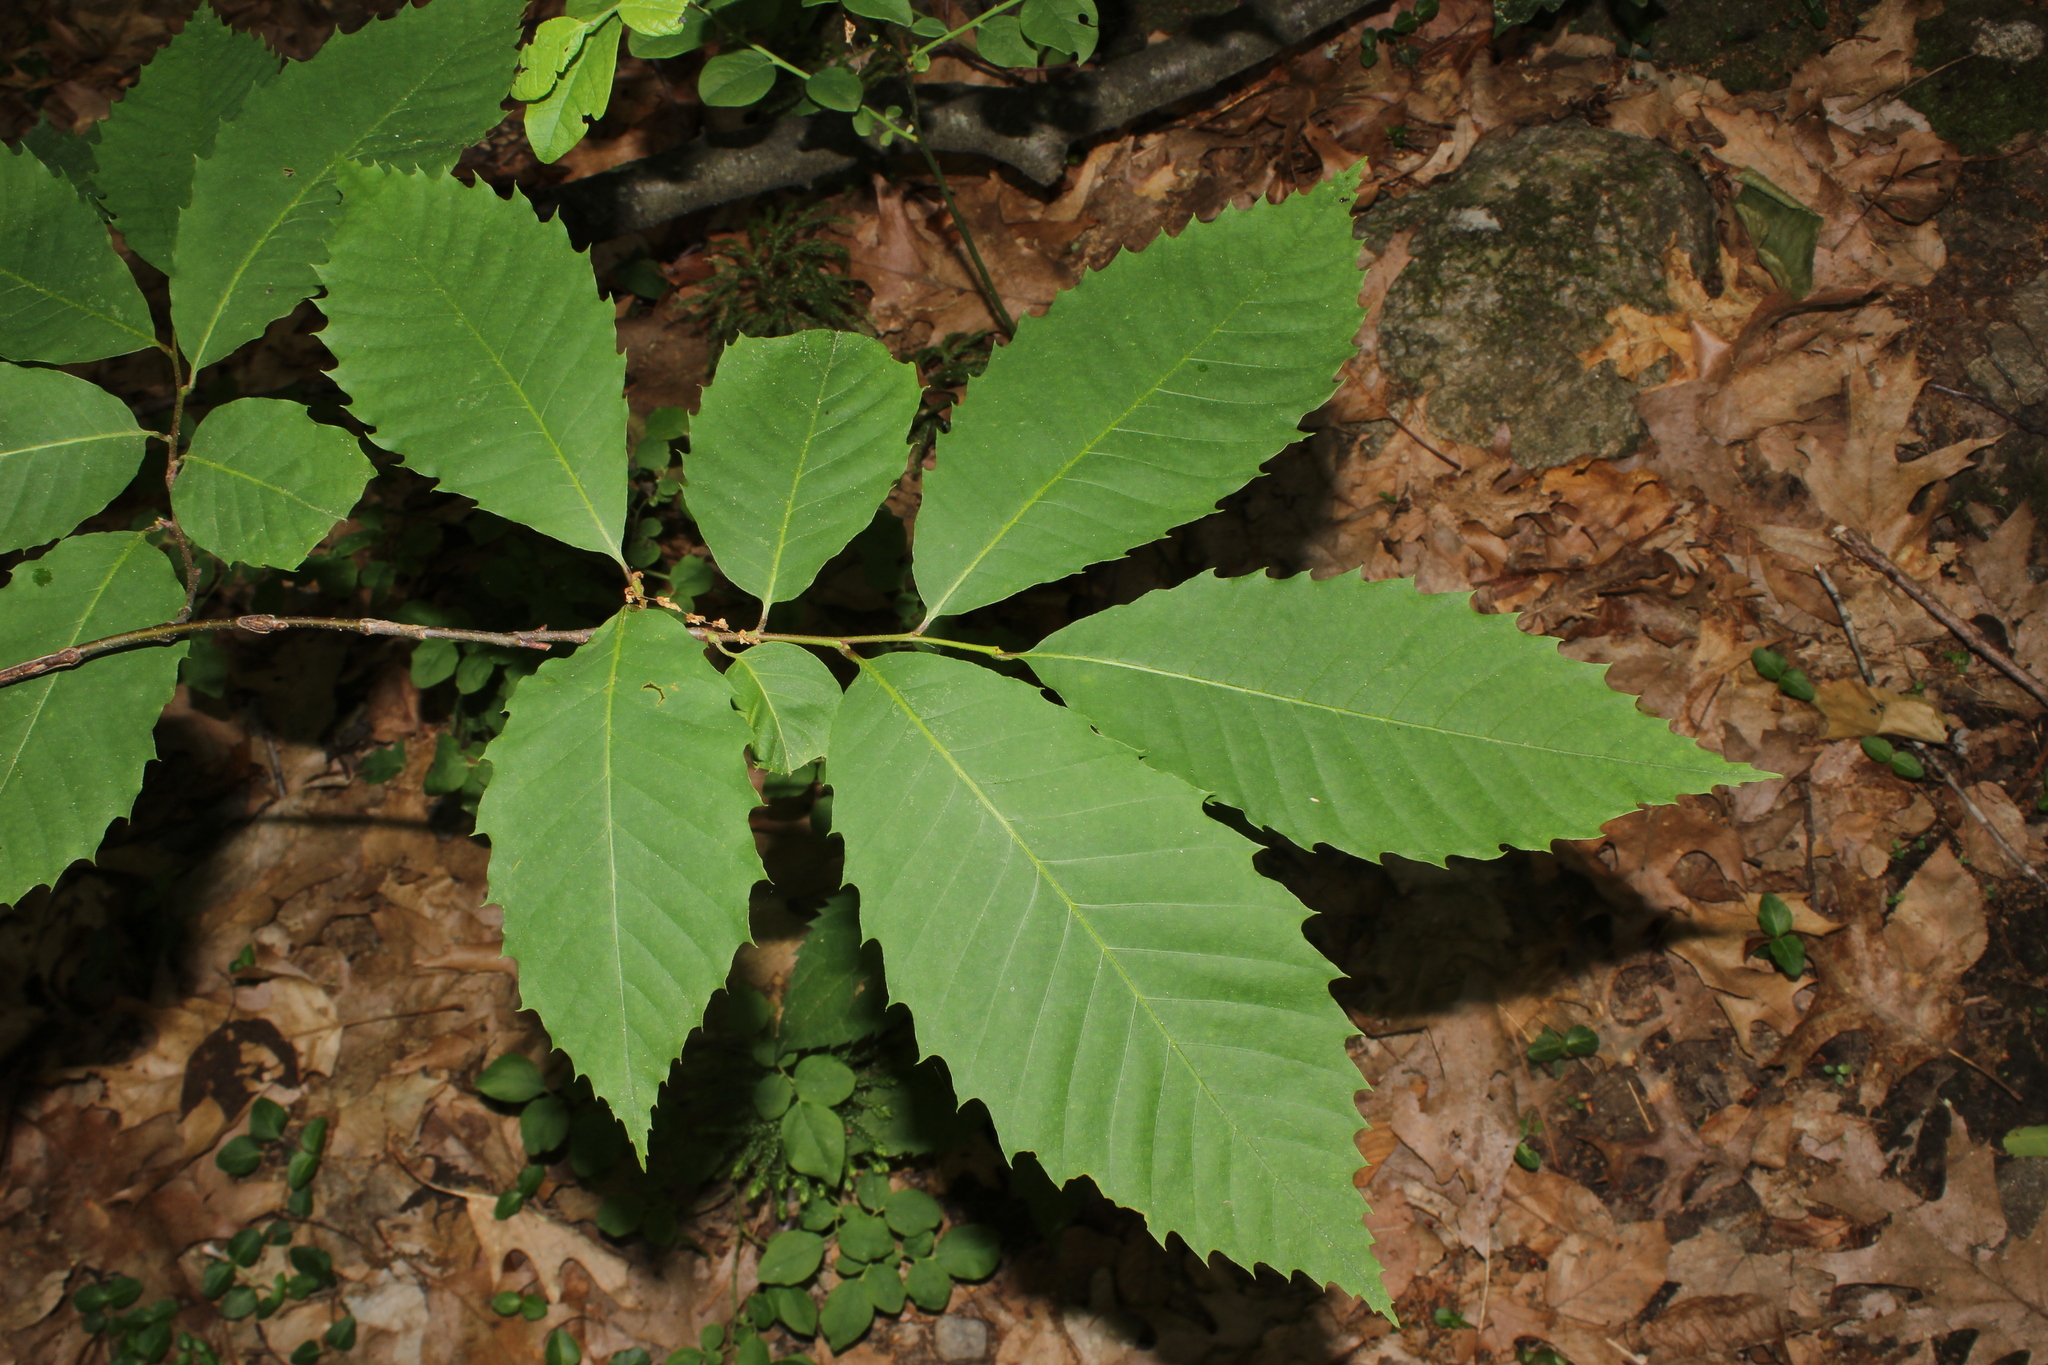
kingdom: Plantae
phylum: Tracheophyta
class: Magnoliopsida
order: Fagales
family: Fagaceae
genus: Castanea
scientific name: Castanea dentata
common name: American chestnut
